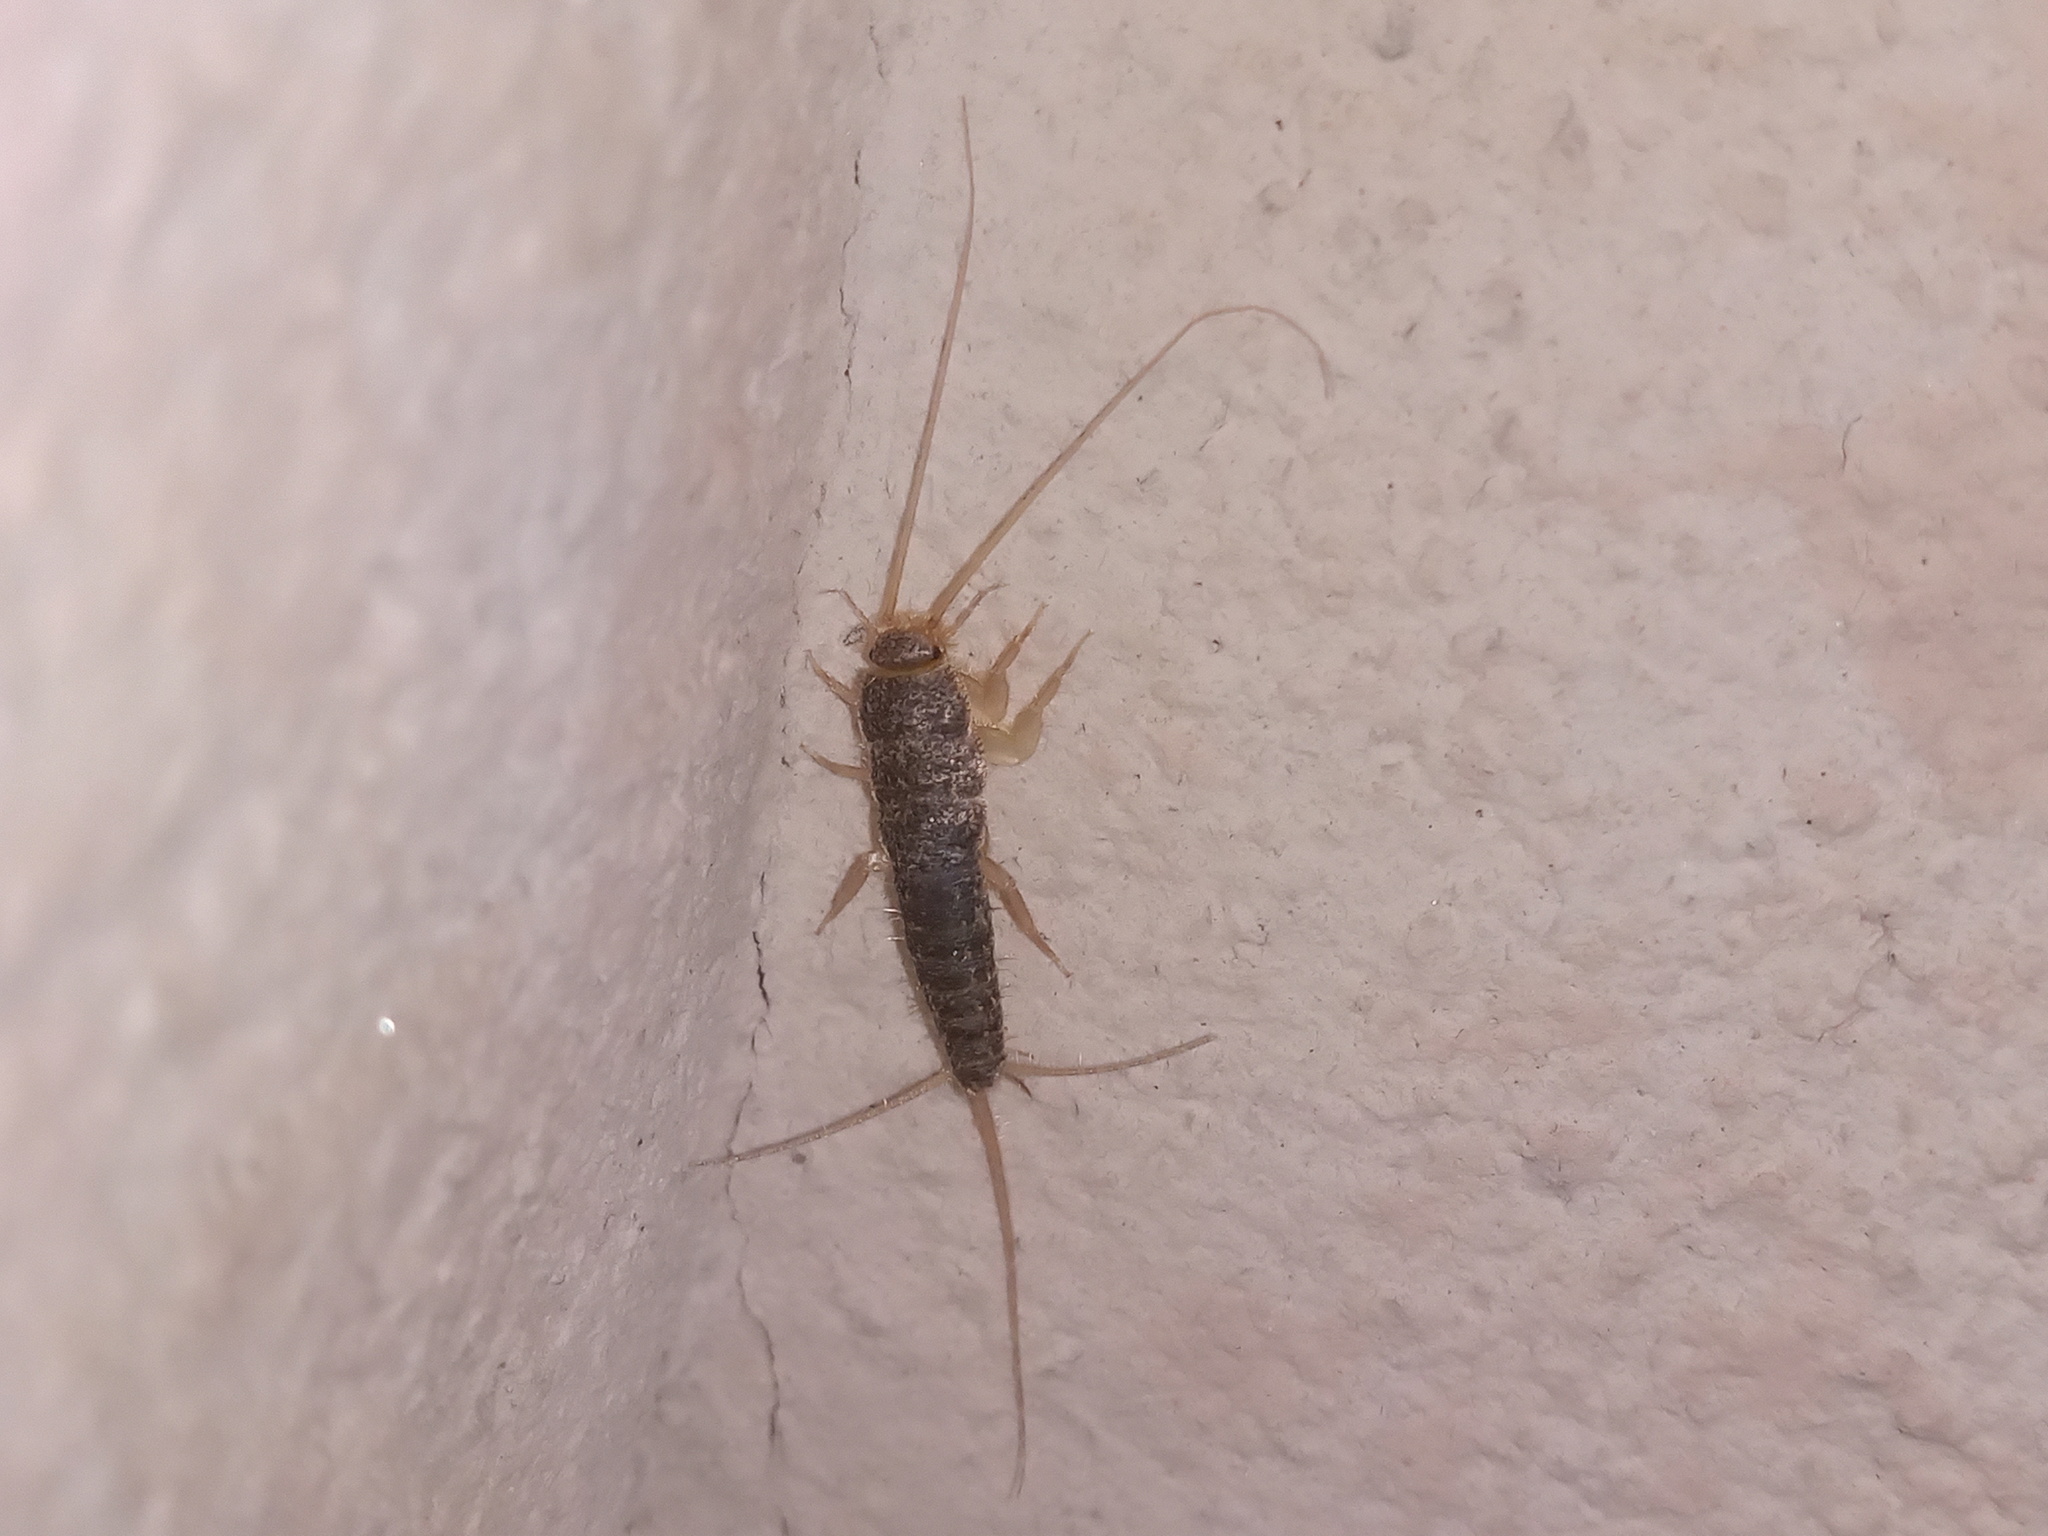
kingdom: Animalia
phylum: Arthropoda
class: Insecta
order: Zygentoma
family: Lepismatidae
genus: Ctenolepisma
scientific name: Ctenolepisma longicaudatum
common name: Silverfish
